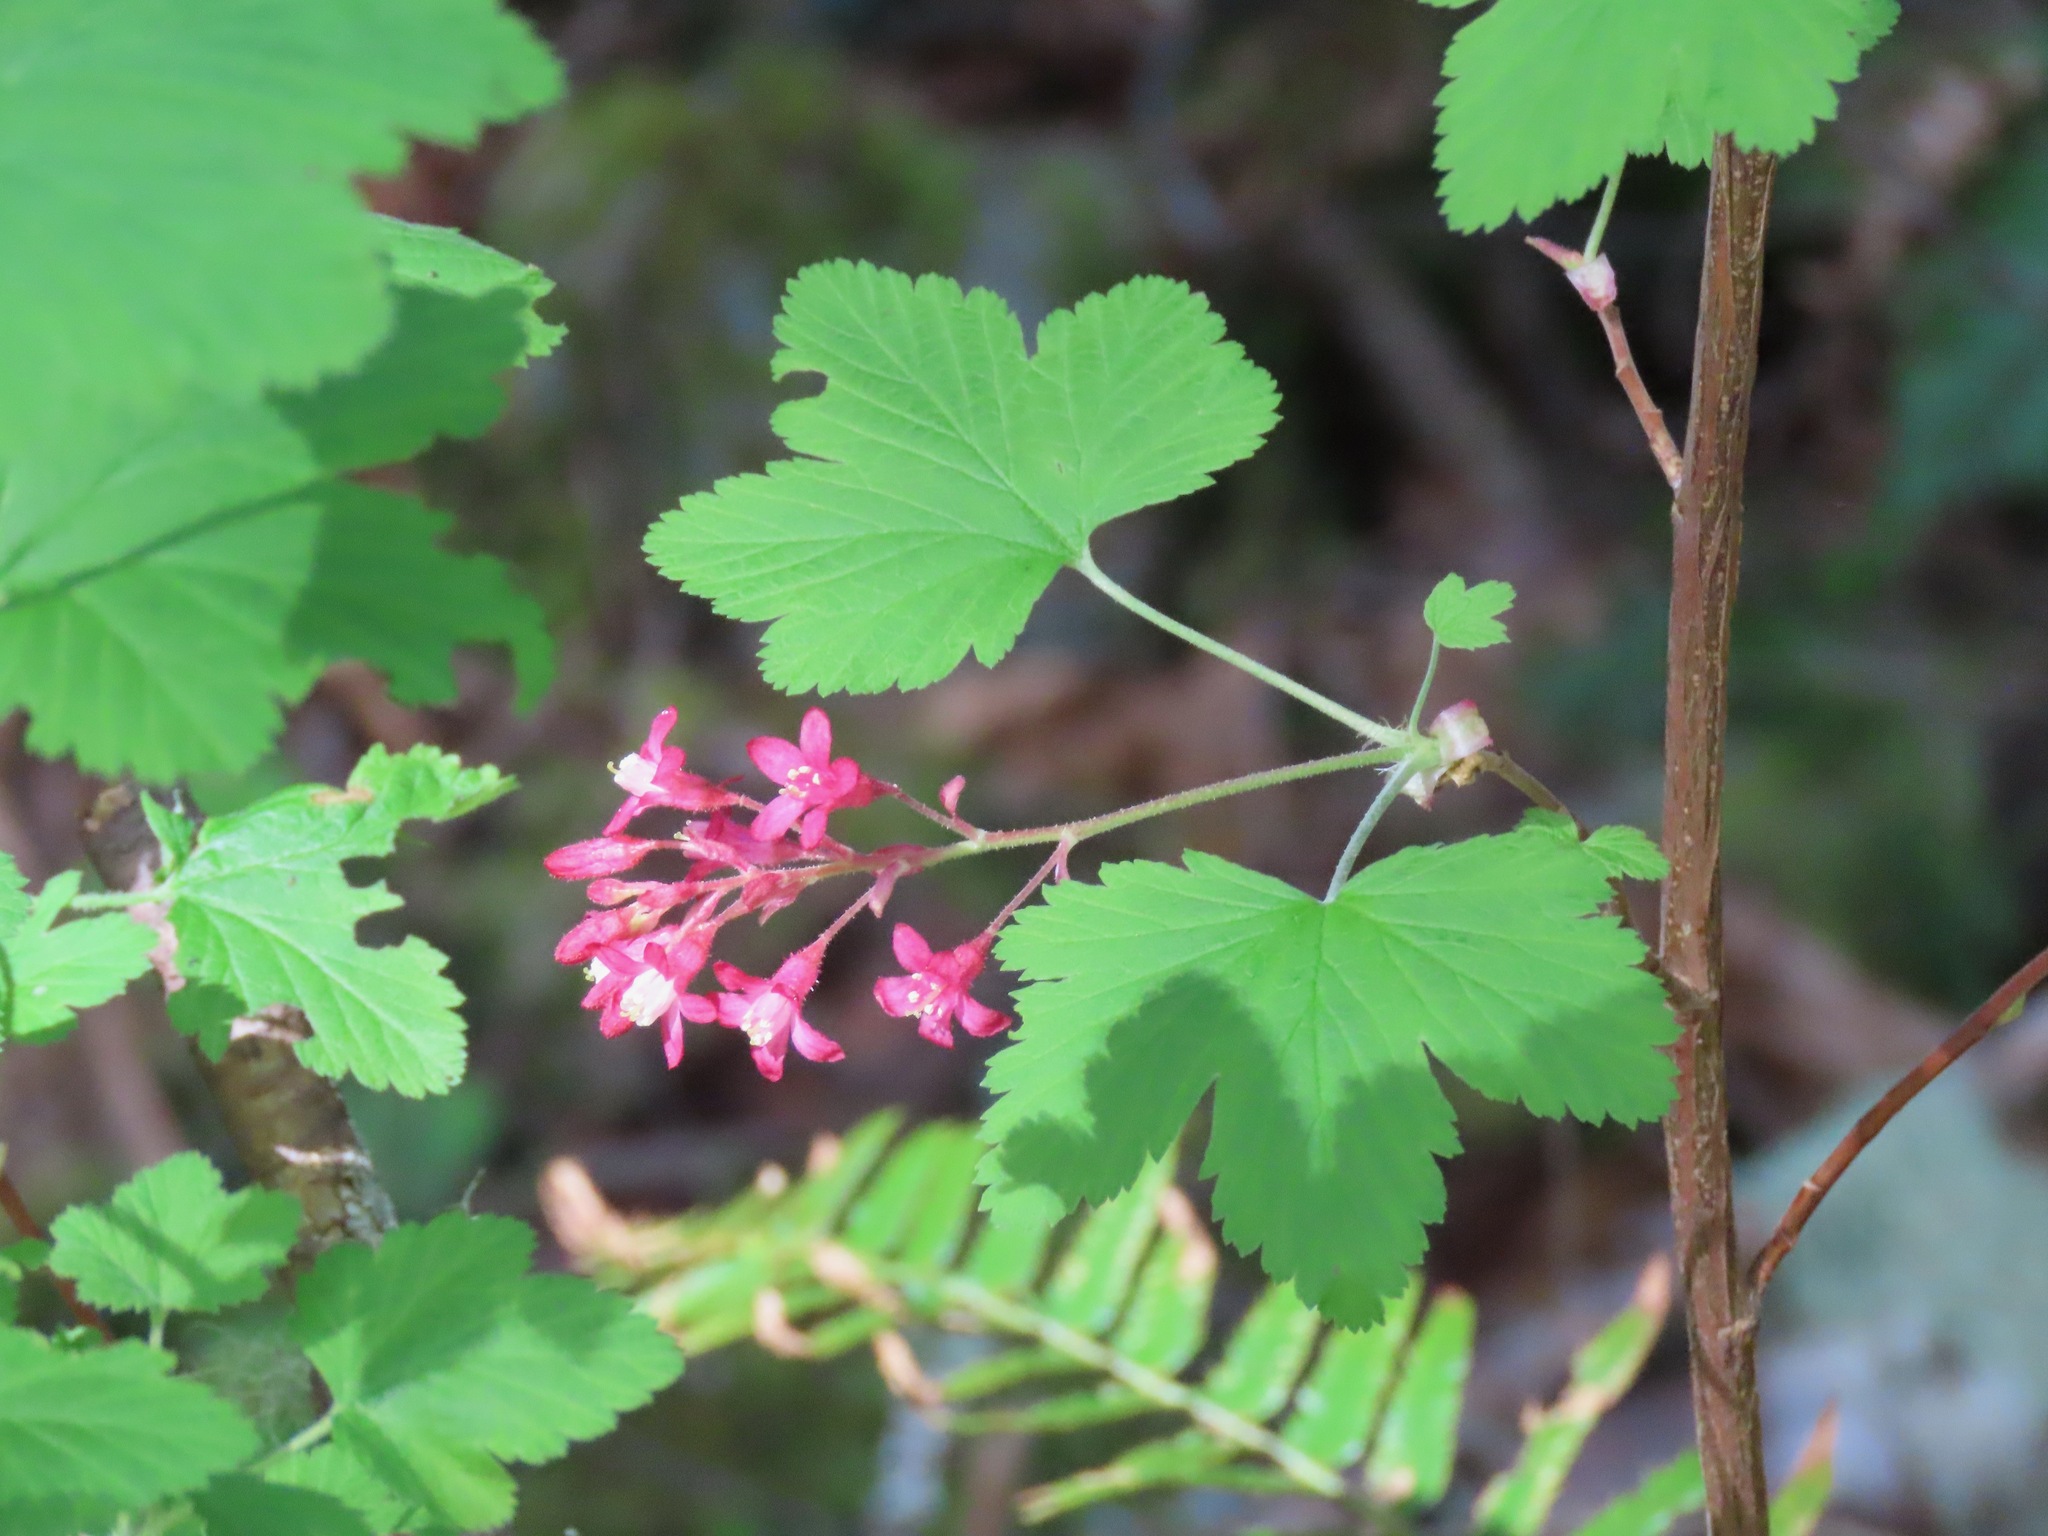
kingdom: Plantae
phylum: Tracheophyta
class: Magnoliopsida
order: Saxifragales
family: Grossulariaceae
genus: Ribes
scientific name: Ribes sanguineum
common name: Flowering currant
